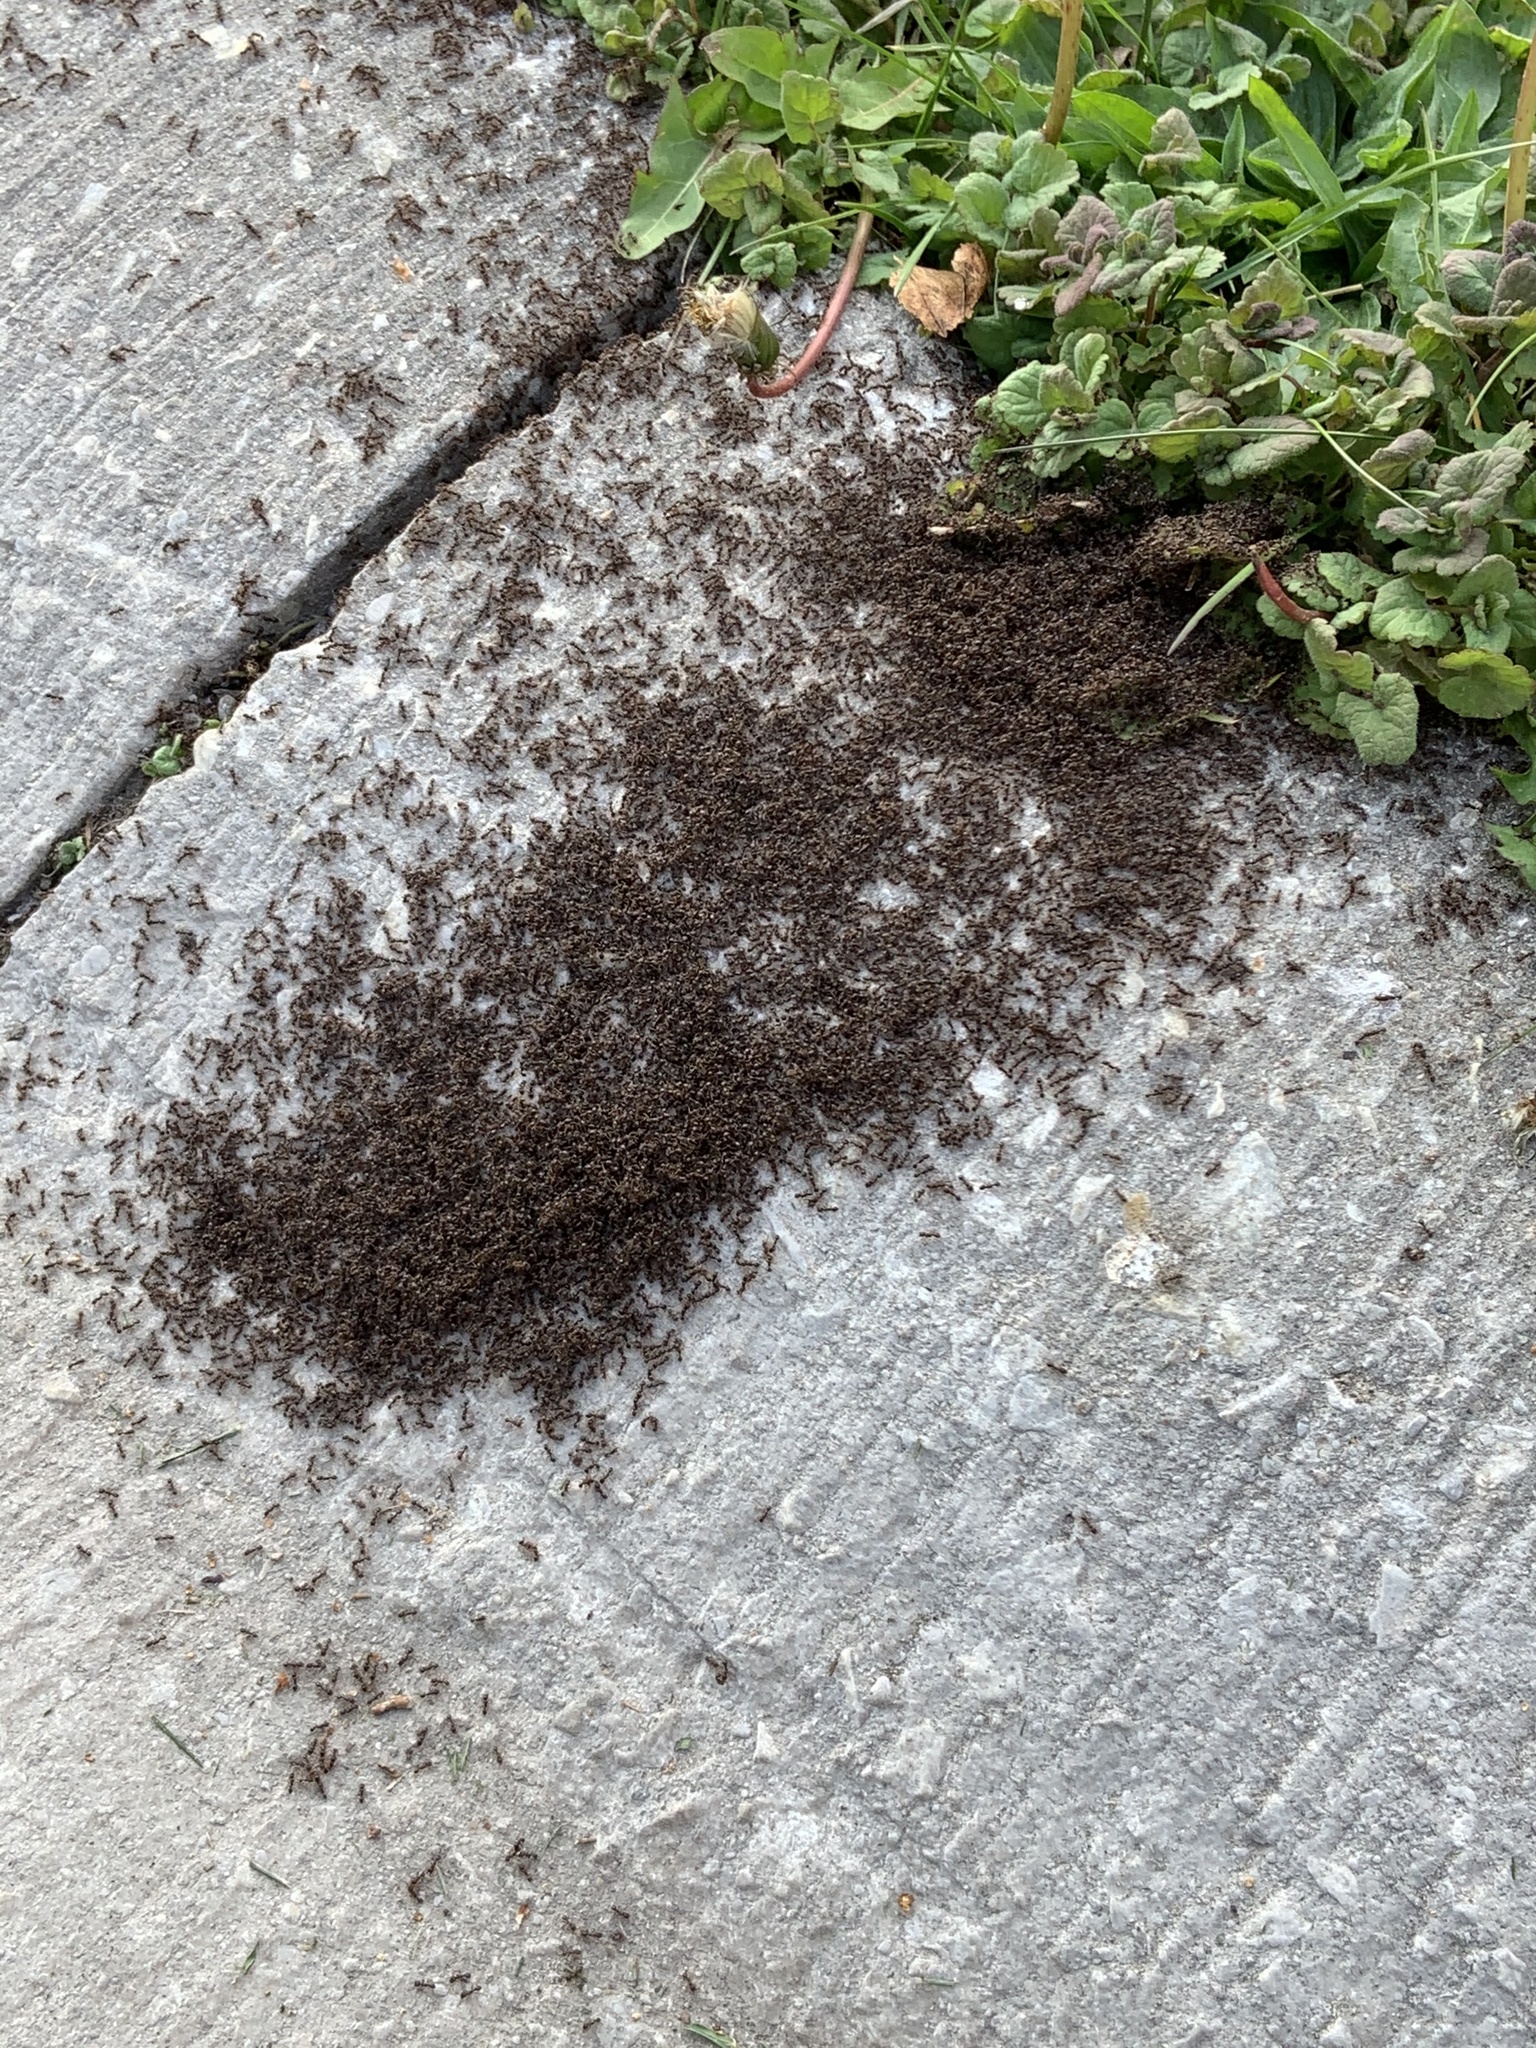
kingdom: Animalia
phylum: Arthropoda
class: Insecta
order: Hymenoptera
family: Formicidae
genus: Tetramorium
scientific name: Tetramorium immigrans
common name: Pavement ant
